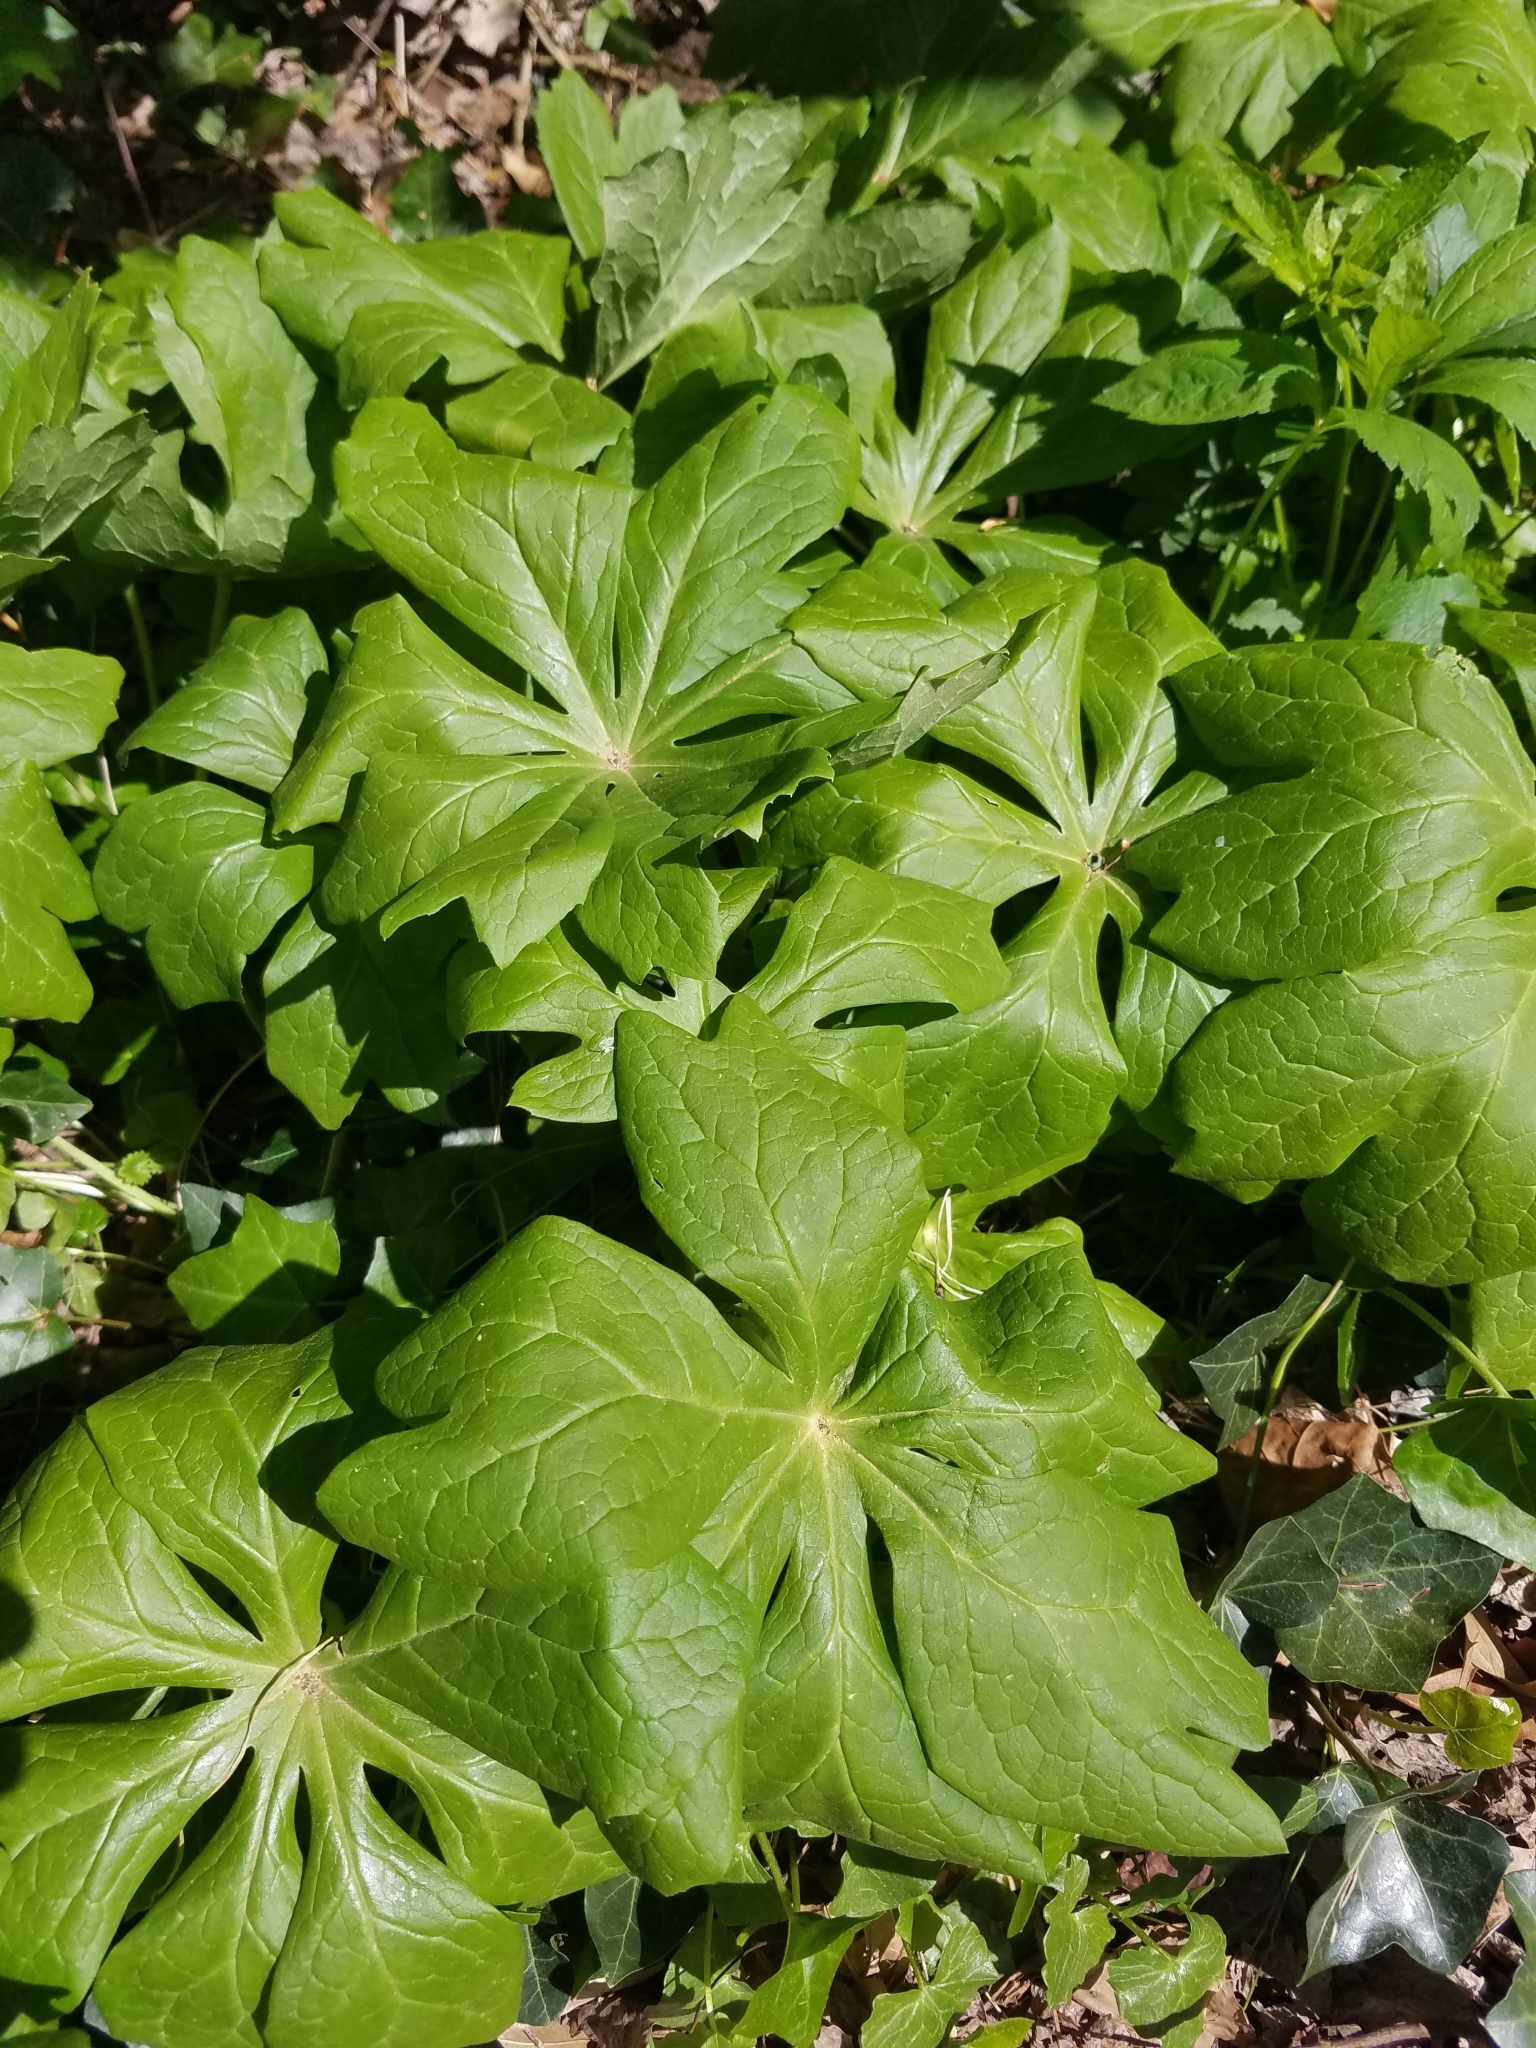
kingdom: Plantae
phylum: Tracheophyta
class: Magnoliopsida
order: Ranunculales
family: Berberidaceae
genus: Podophyllum
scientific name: Podophyllum peltatum
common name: Wild mandrake
